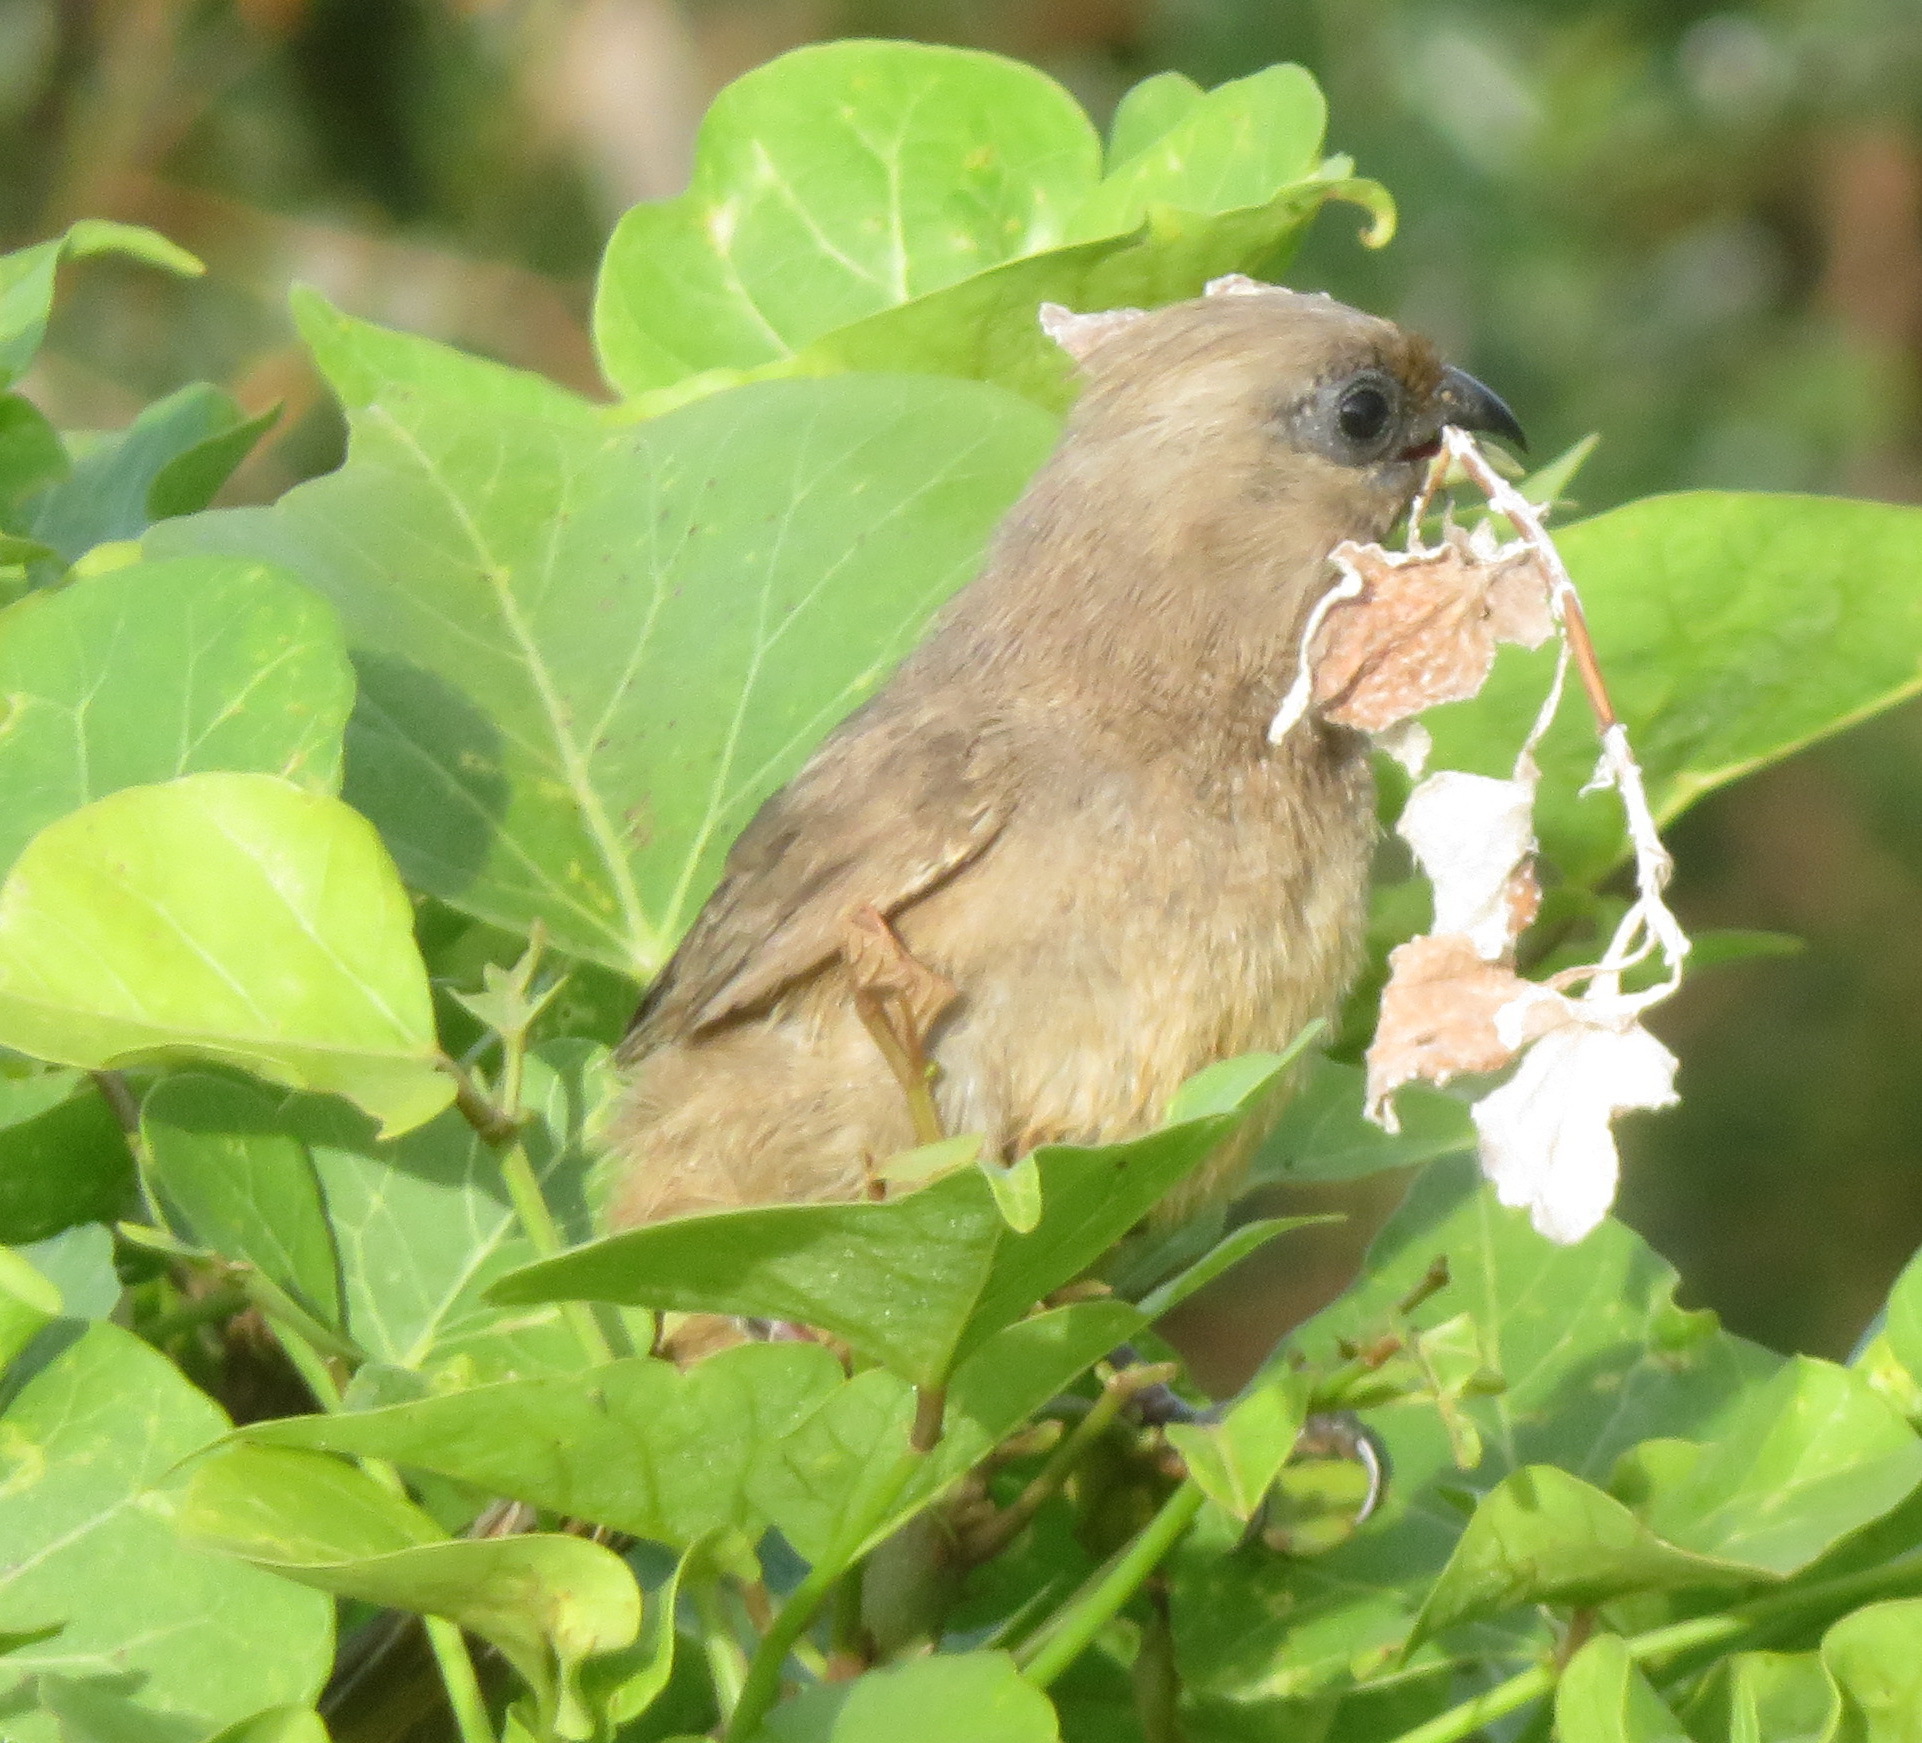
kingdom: Animalia
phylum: Chordata
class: Aves
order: Coliiformes
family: Coliidae
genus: Colius
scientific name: Colius striatus
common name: Speckled mousebird
